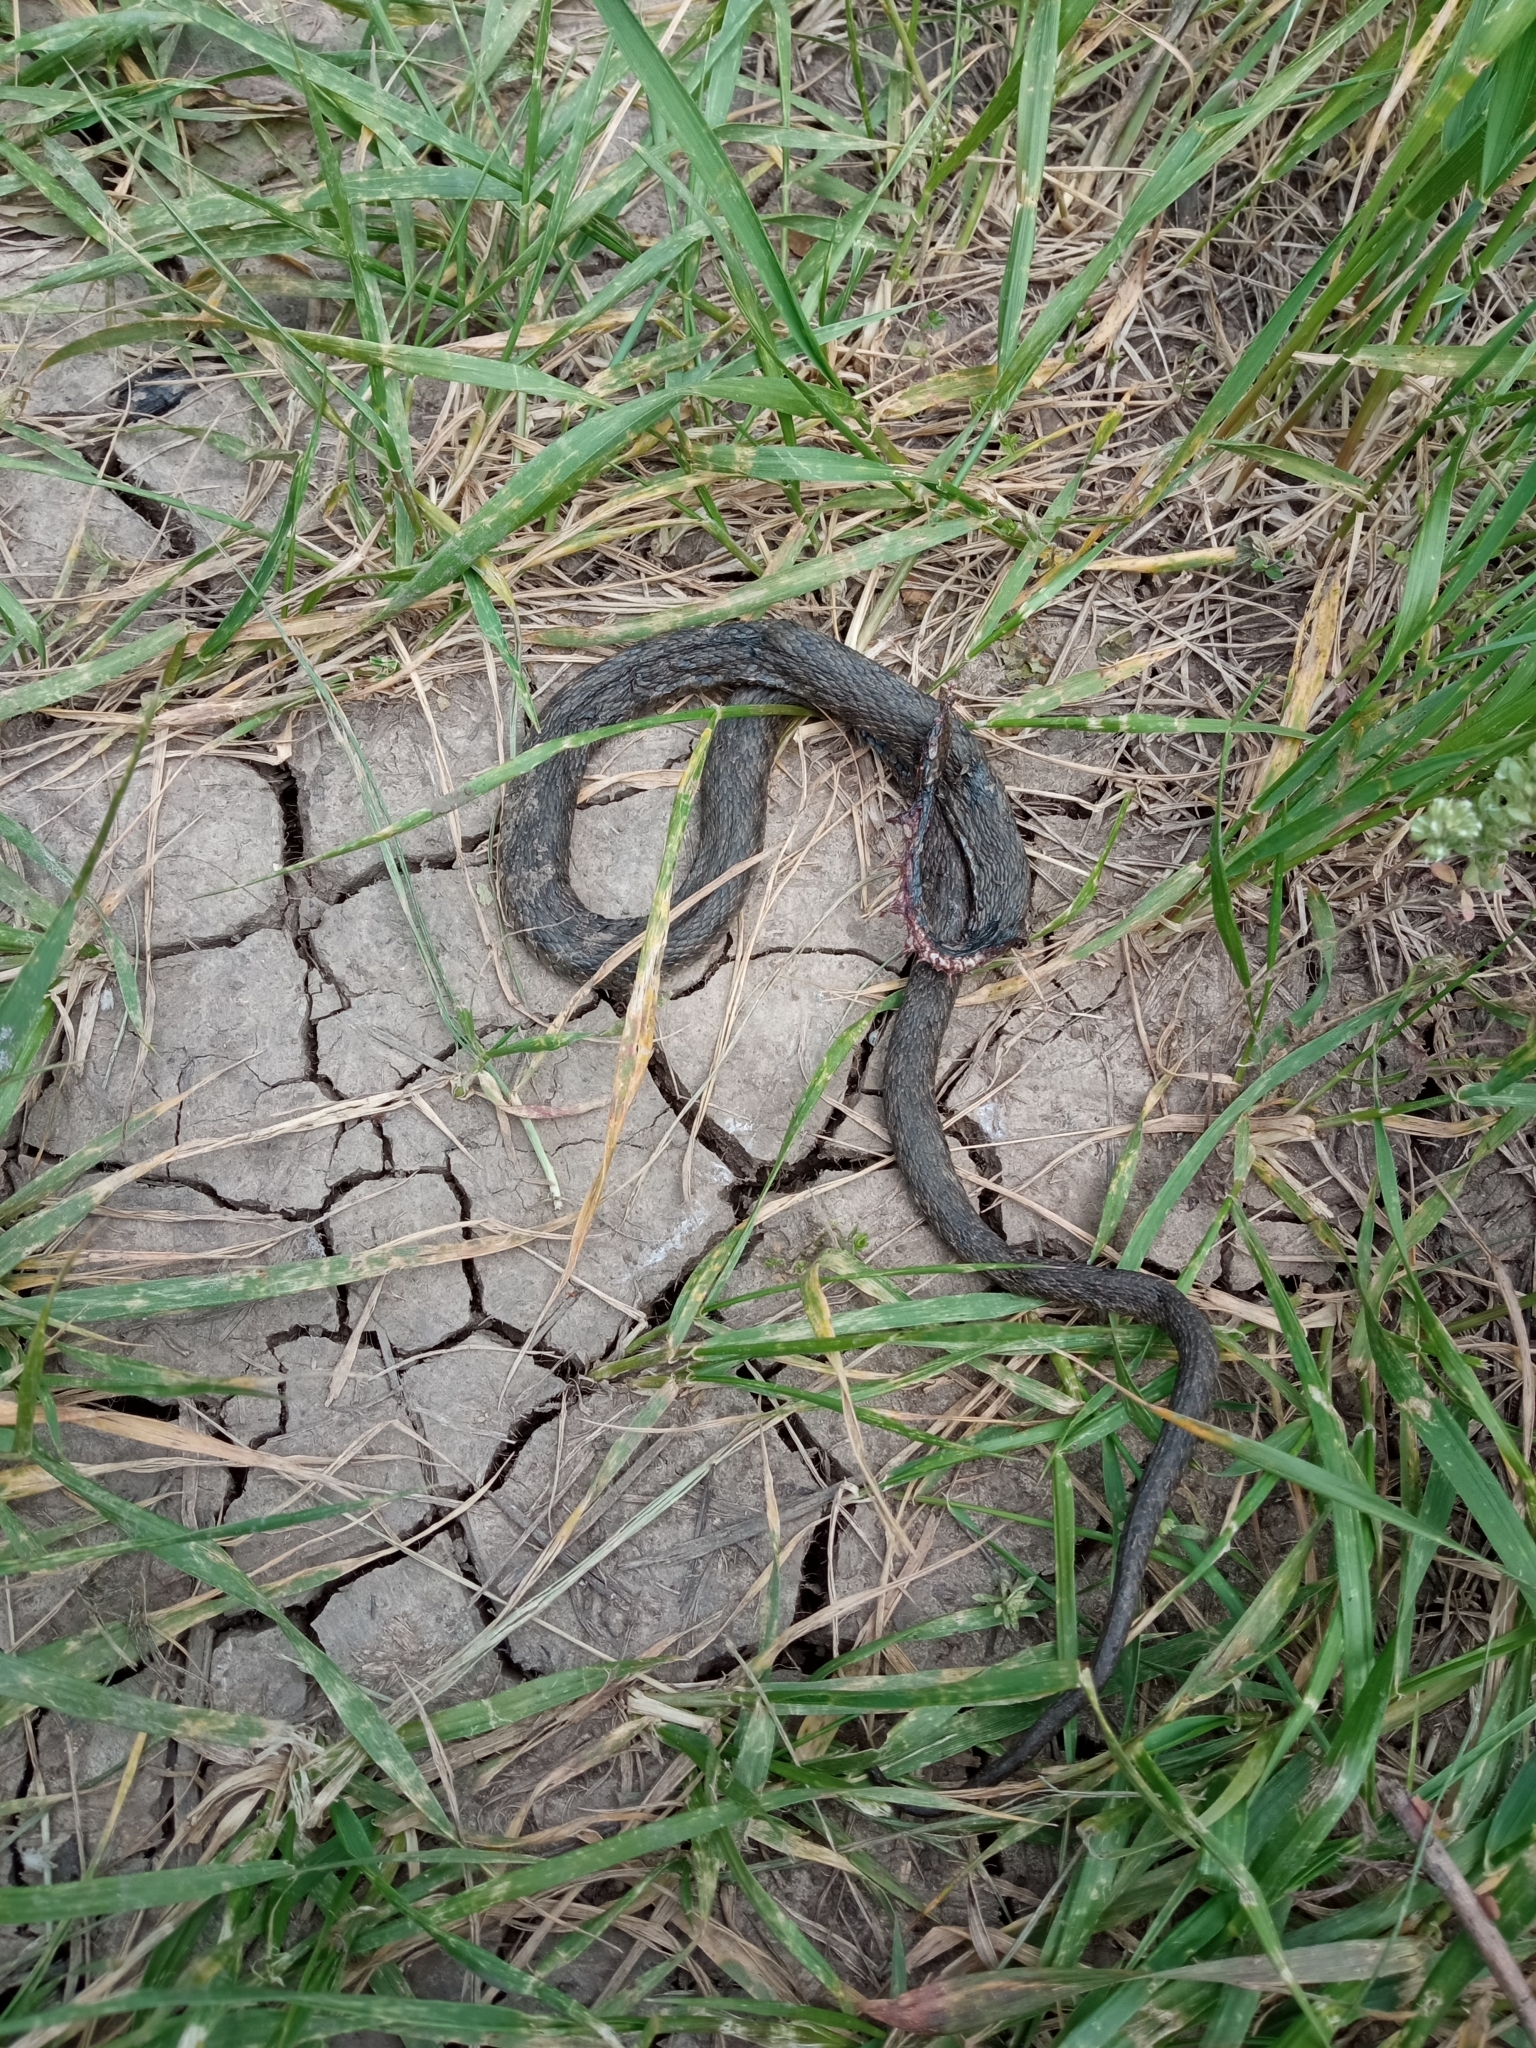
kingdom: Animalia
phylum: Chordata
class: Squamata
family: Colubridae
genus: Natrix
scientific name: Natrix tessellata
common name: Dice snake
